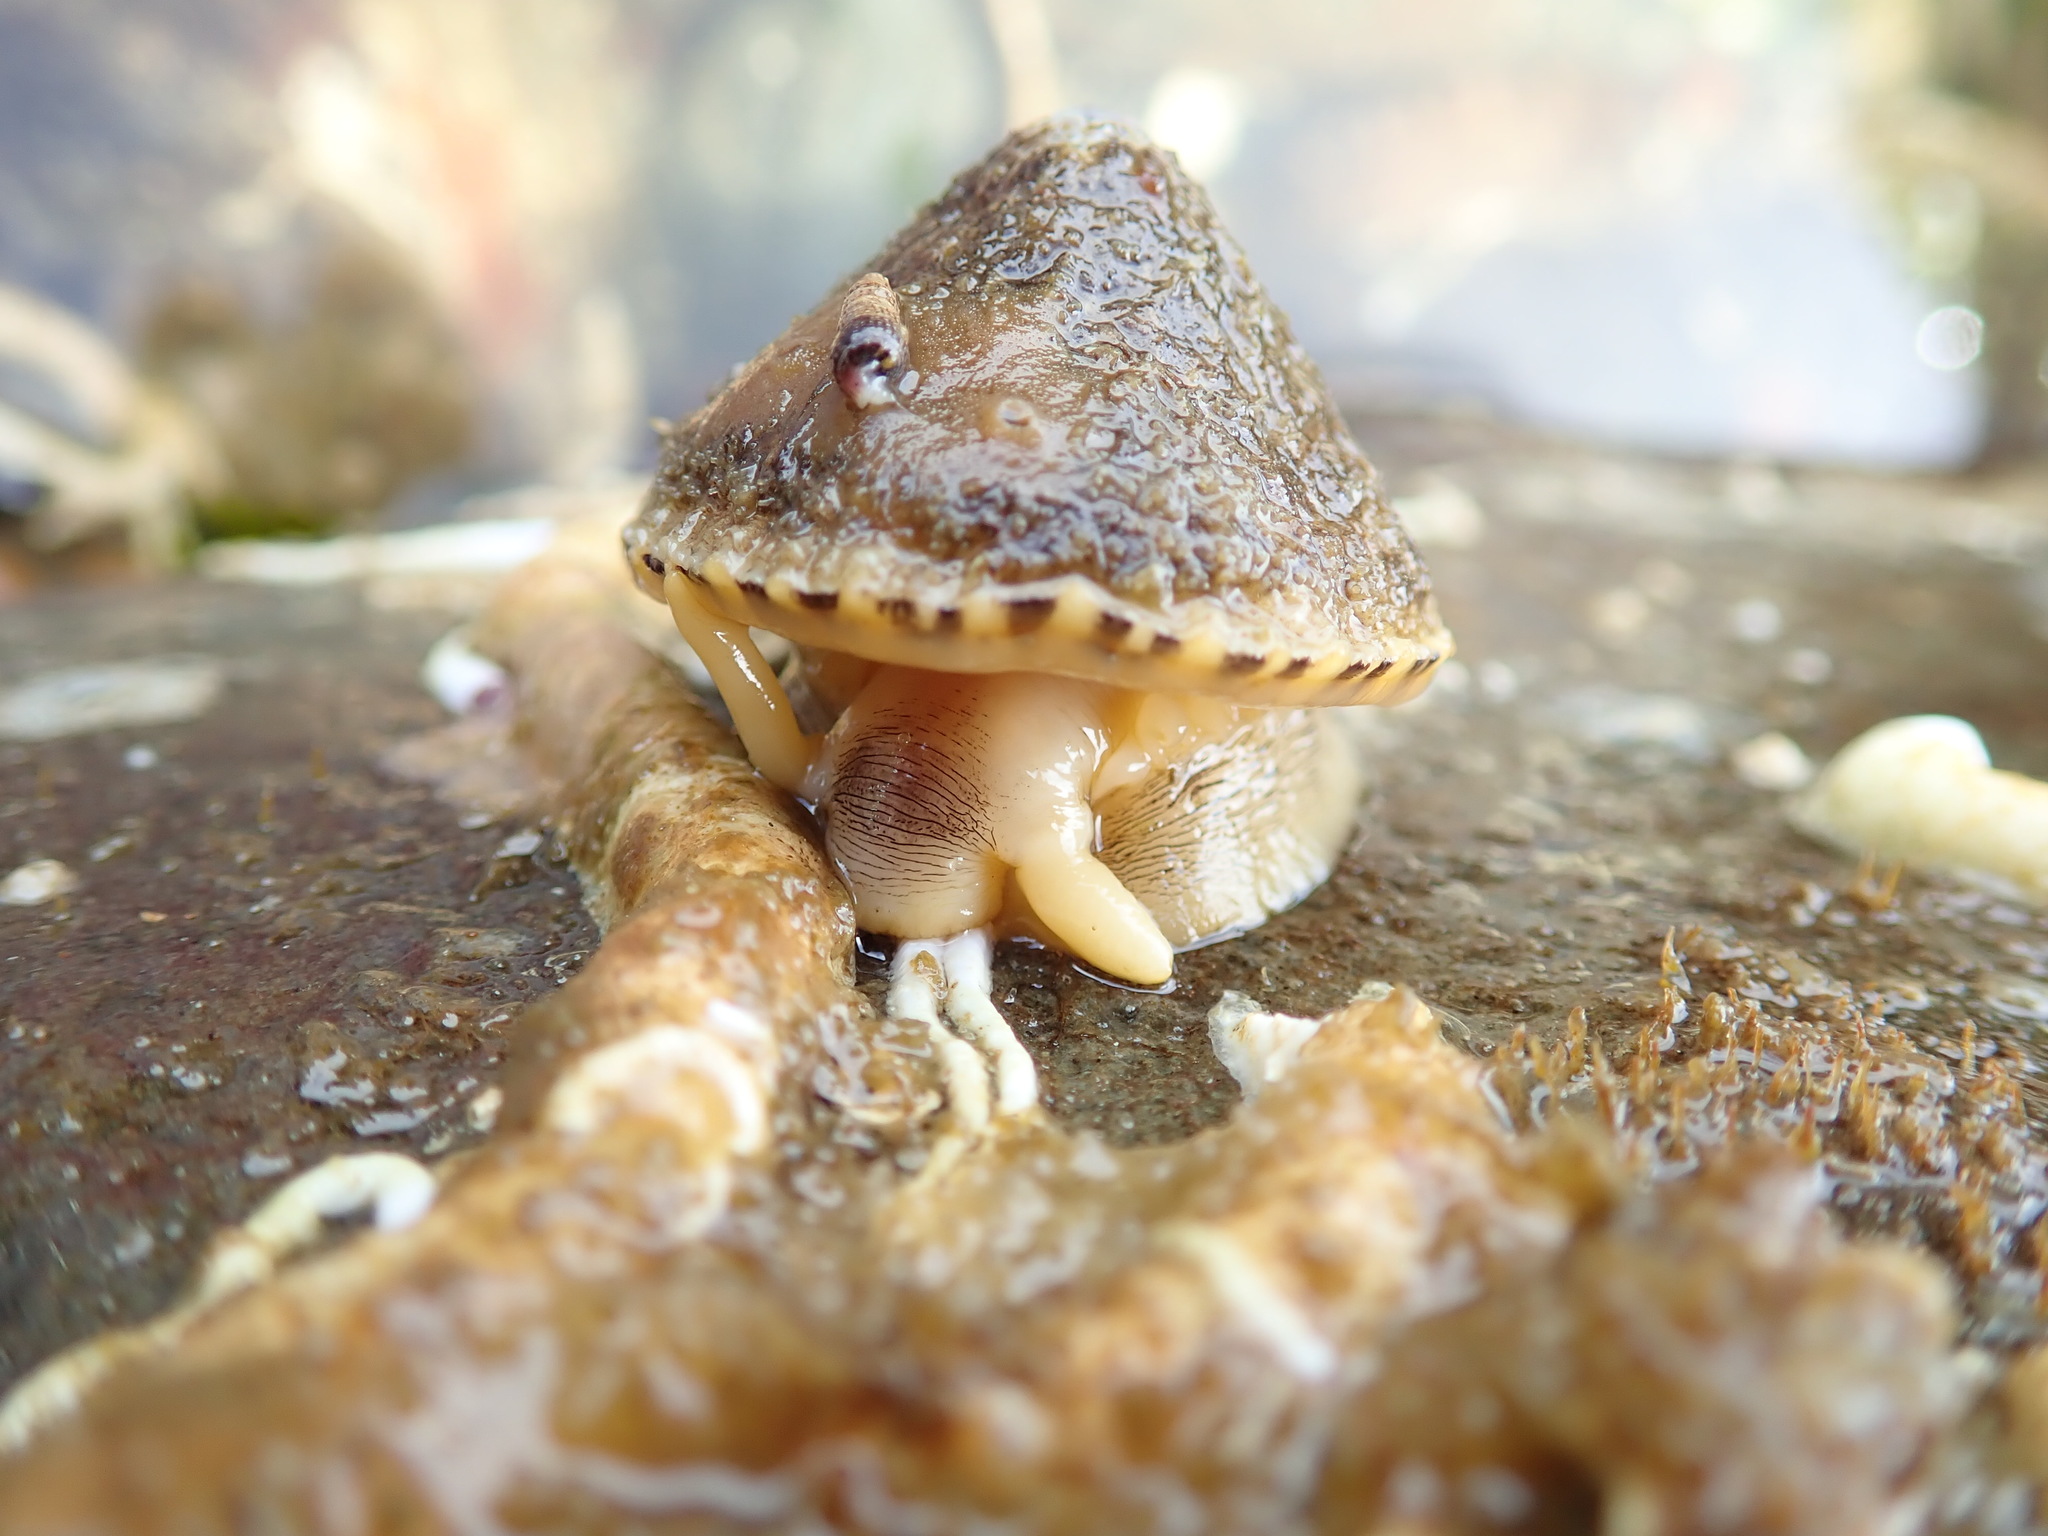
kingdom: Animalia
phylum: Mollusca
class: Gastropoda
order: Lepetellida
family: Fissurellidae
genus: Diodora
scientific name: Diodora aspera
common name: Rough keyhole limpet
